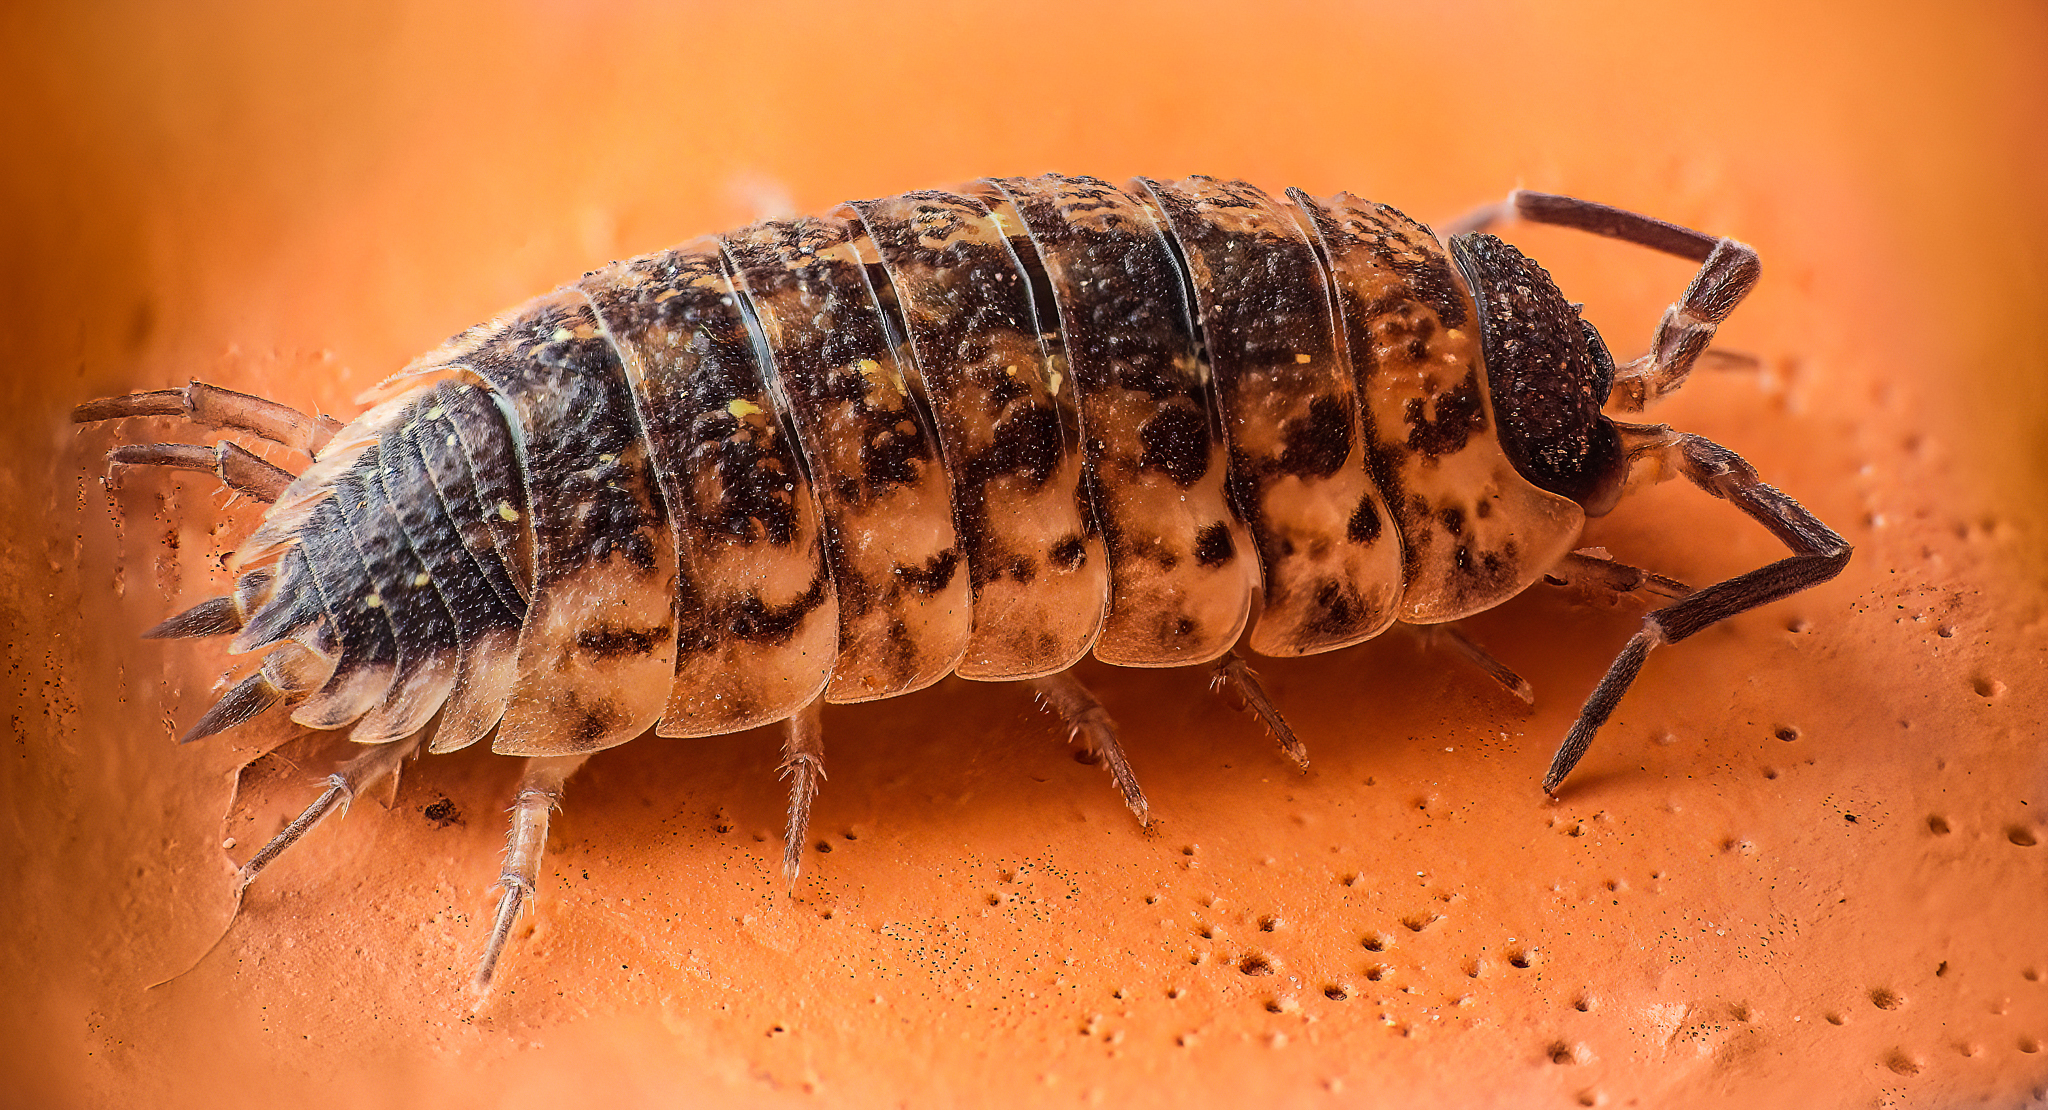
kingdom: Animalia
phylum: Arthropoda
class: Malacostraca
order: Isopoda
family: Porcellionidae
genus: Porcellio
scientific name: Porcellio spinicornis
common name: Painted woodlouse
